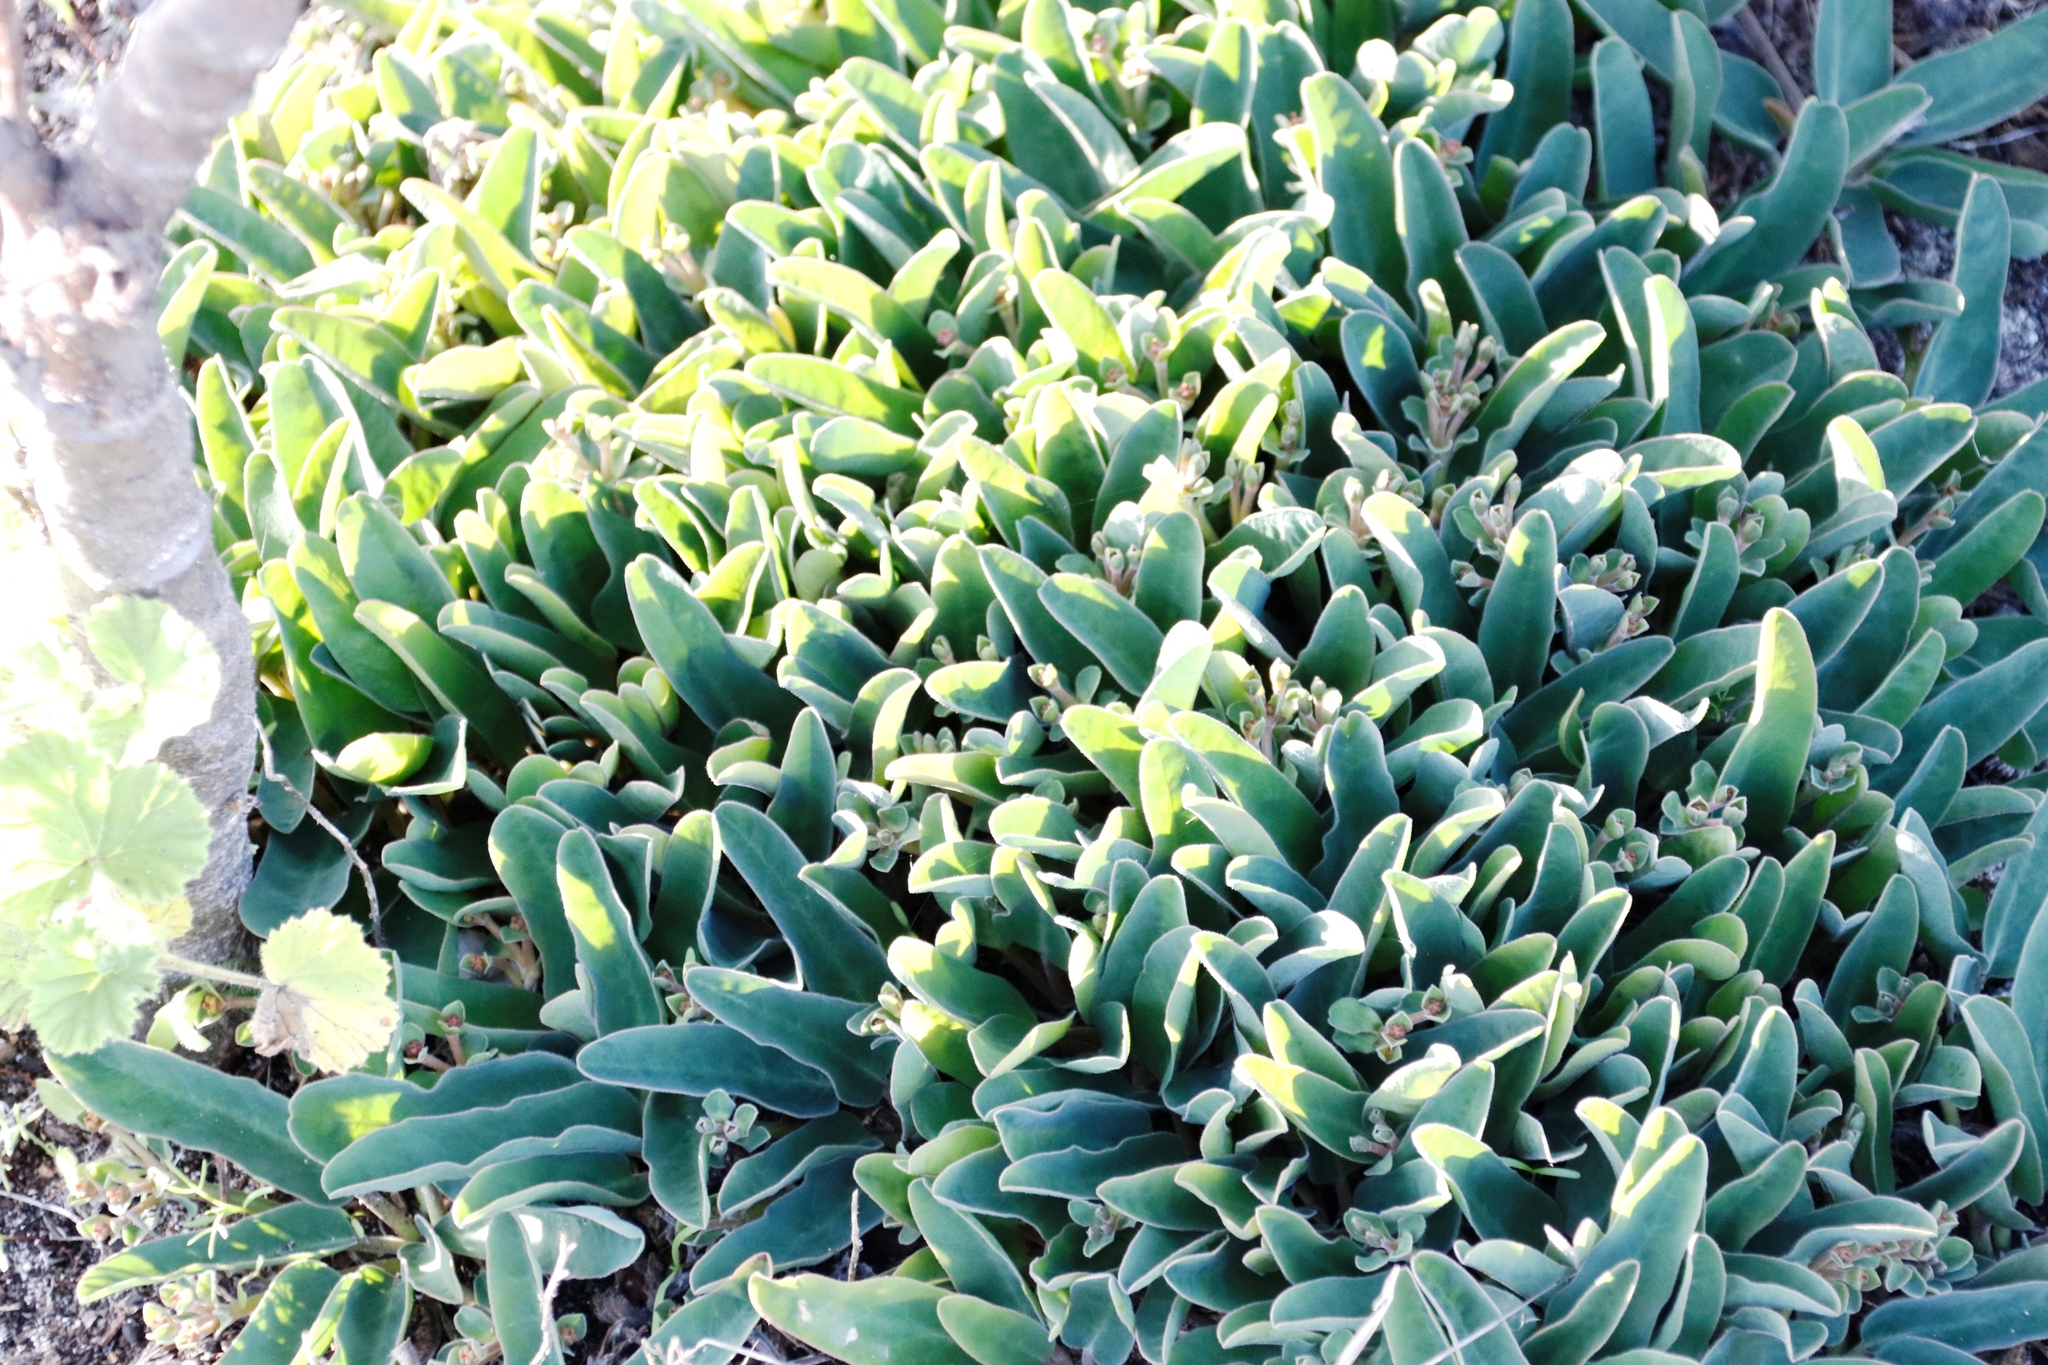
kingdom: Plantae
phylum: Tracheophyta
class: Magnoliopsida
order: Malpighiales
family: Euphorbiaceae
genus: Euphorbia
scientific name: Euphorbia tuberosa
